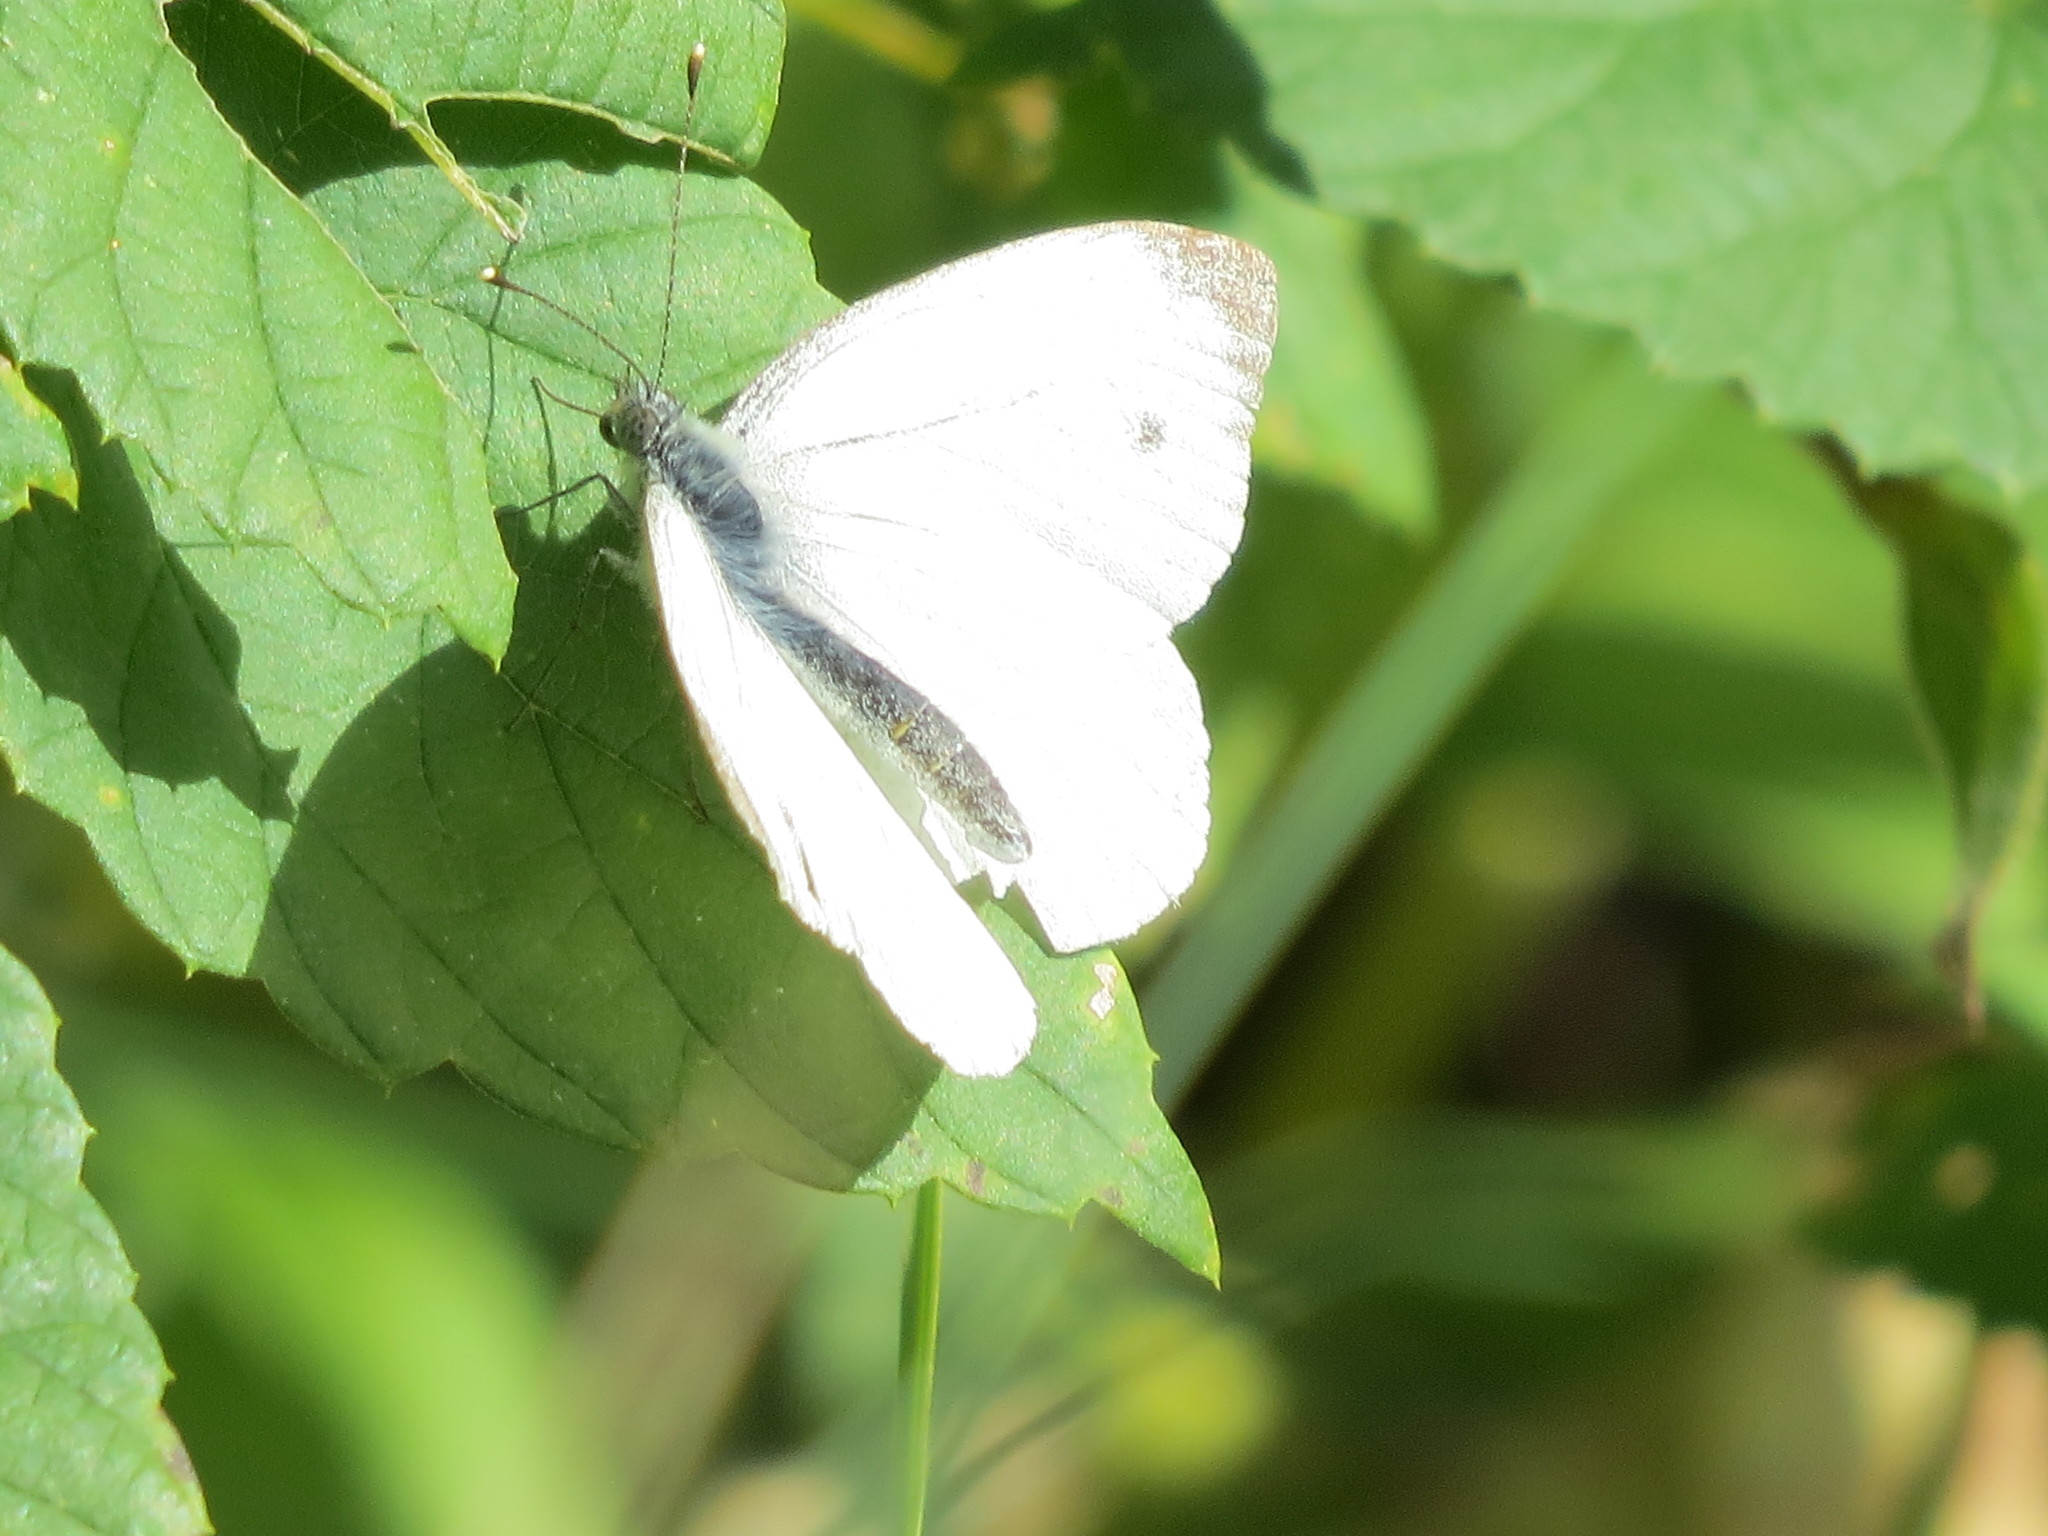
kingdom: Animalia
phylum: Arthropoda
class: Insecta
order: Lepidoptera
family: Pieridae
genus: Pieris
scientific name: Pieris napi
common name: Green-veined white
